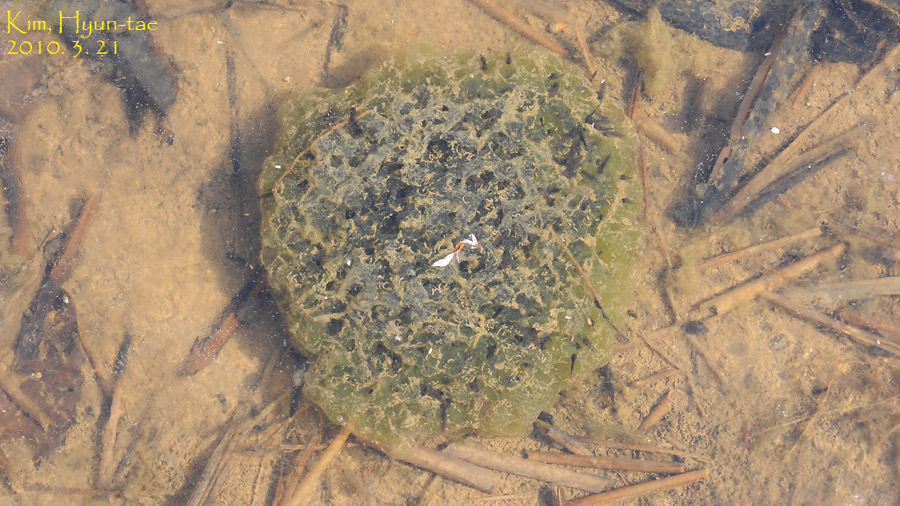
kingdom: Animalia
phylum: Chordata
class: Amphibia
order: Anura
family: Ranidae
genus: Rana
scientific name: Rana uenoi
